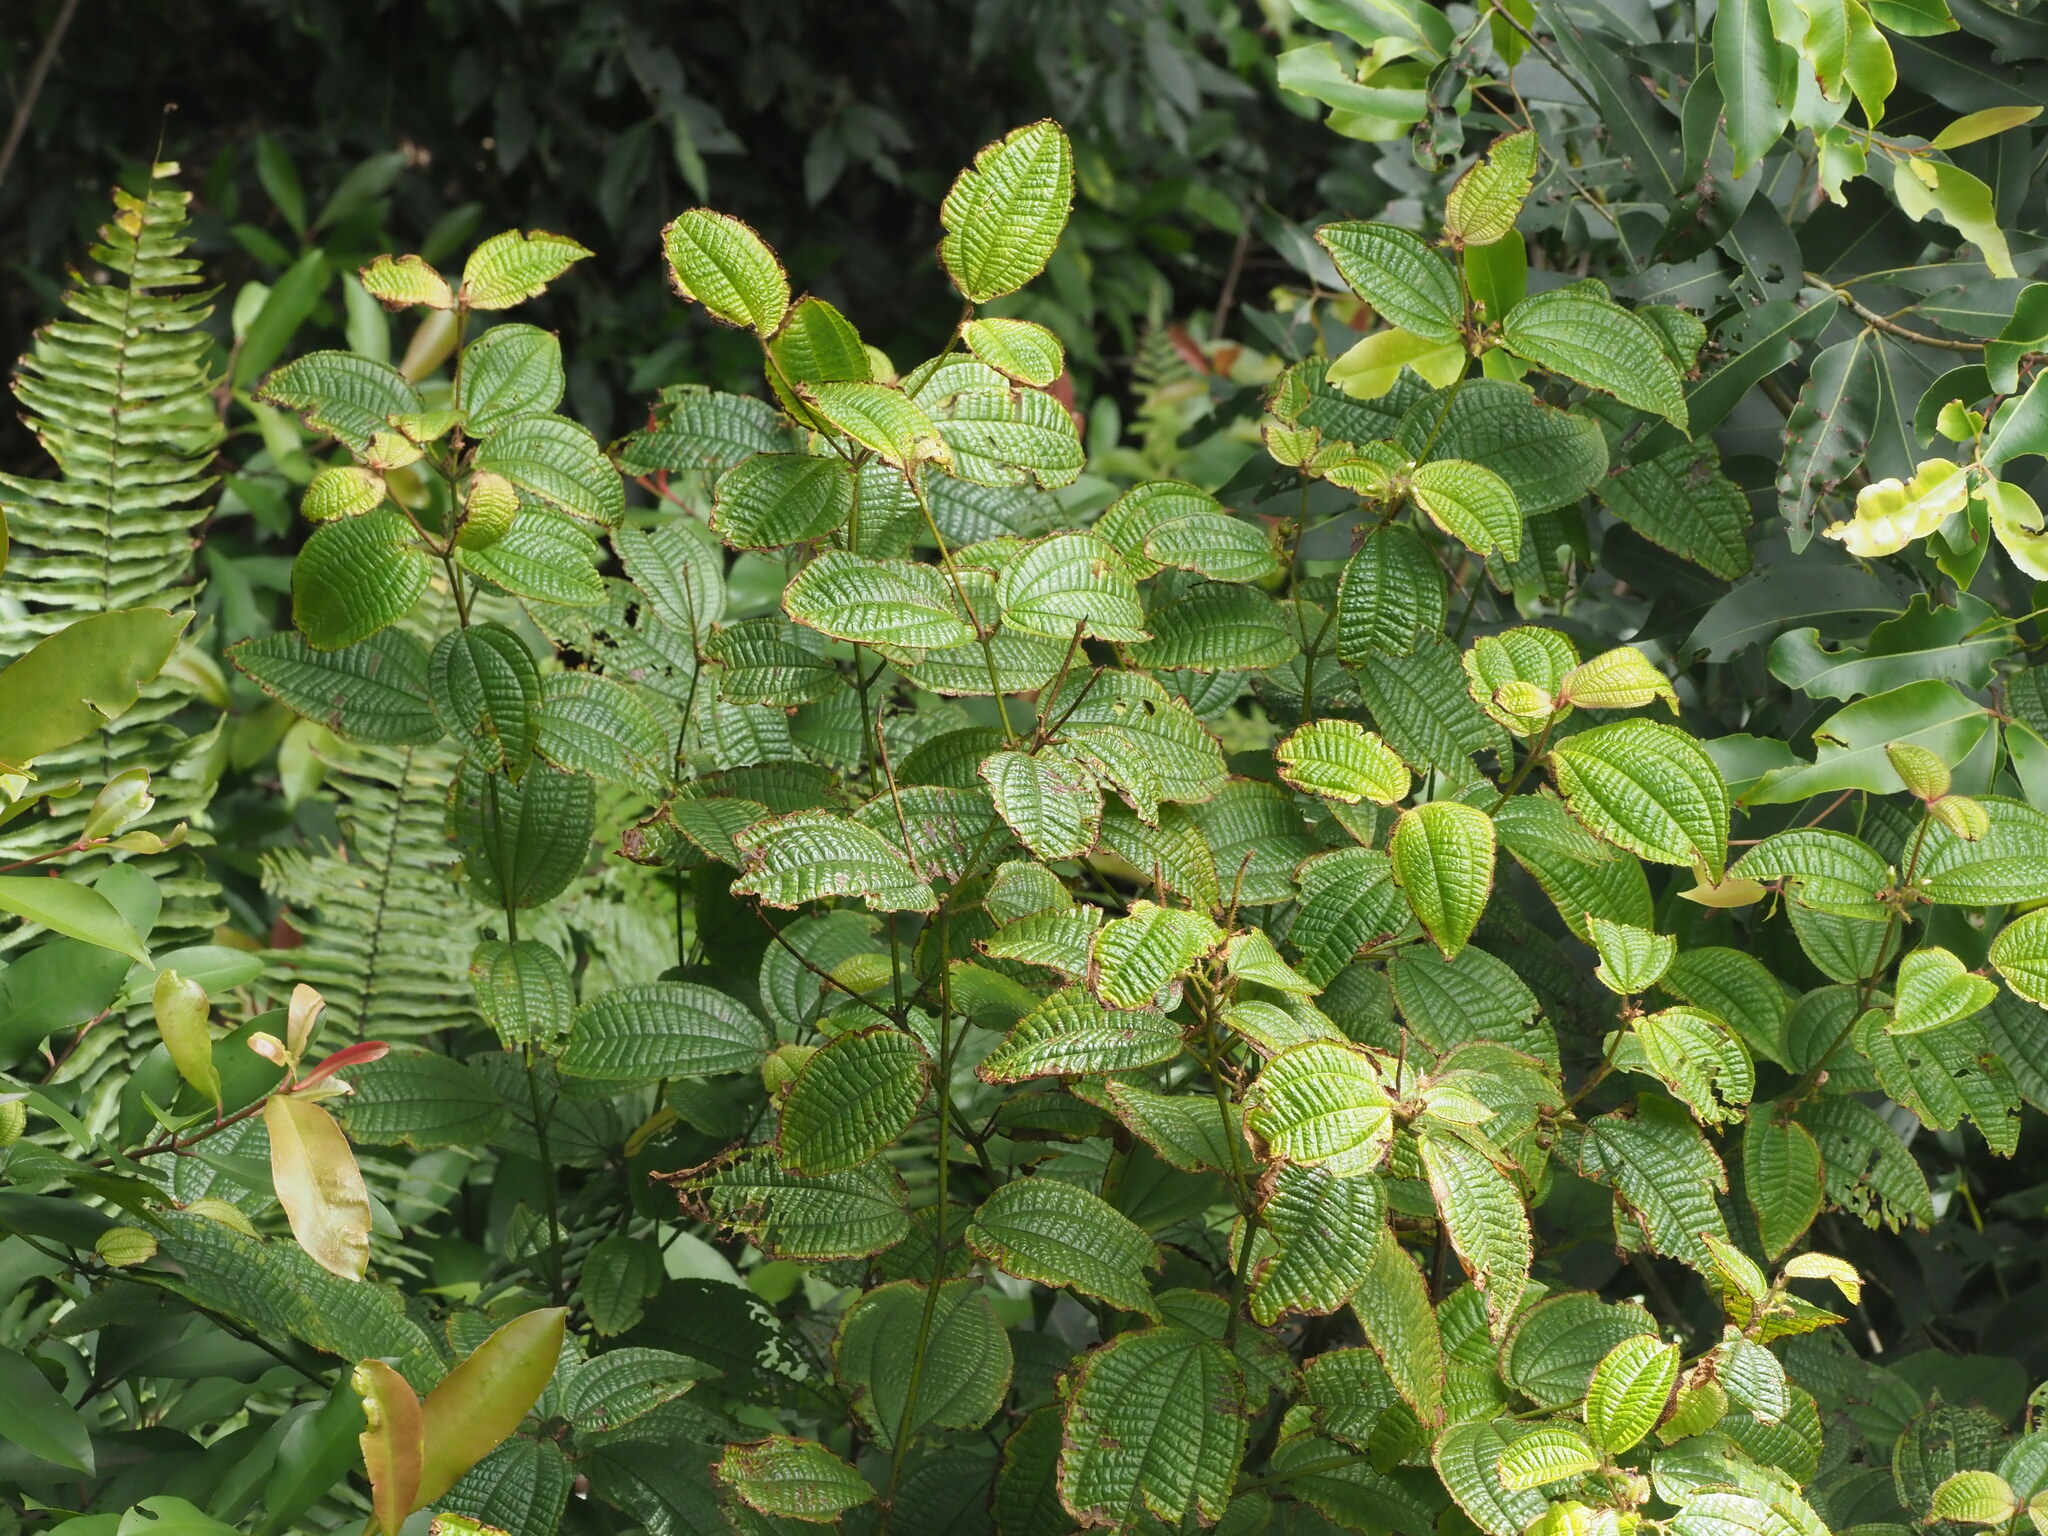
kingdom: Plantae
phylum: Tracheophyta
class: Magnoliopsida
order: Myrtales
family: Melastomataceae
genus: Miconia
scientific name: Miconia crenata
